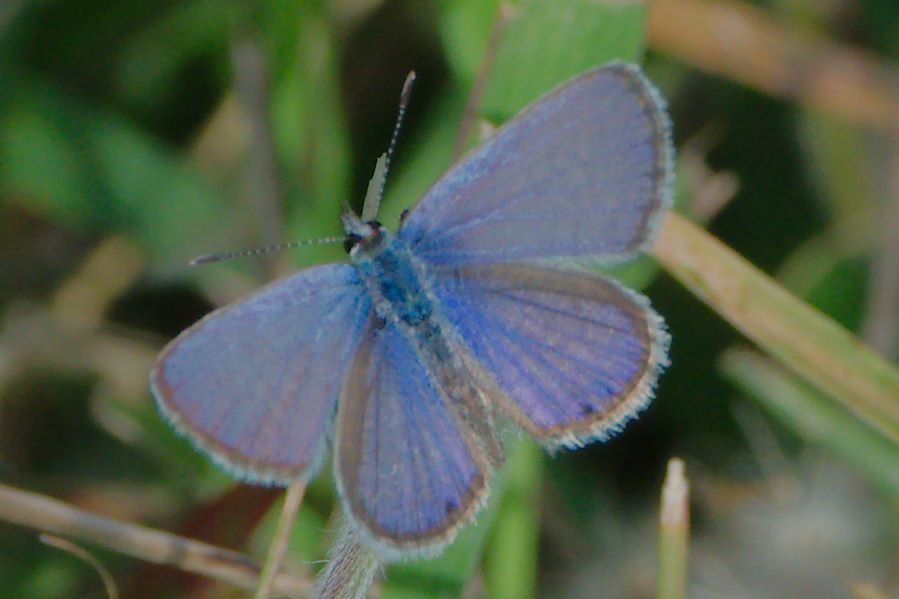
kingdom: Animalia
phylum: Arthropoda
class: Insecta
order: Lepidoptera
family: Lycaenidae
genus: Hemiargus
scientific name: Hemiargus ceraunus
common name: Ceraunus blue
